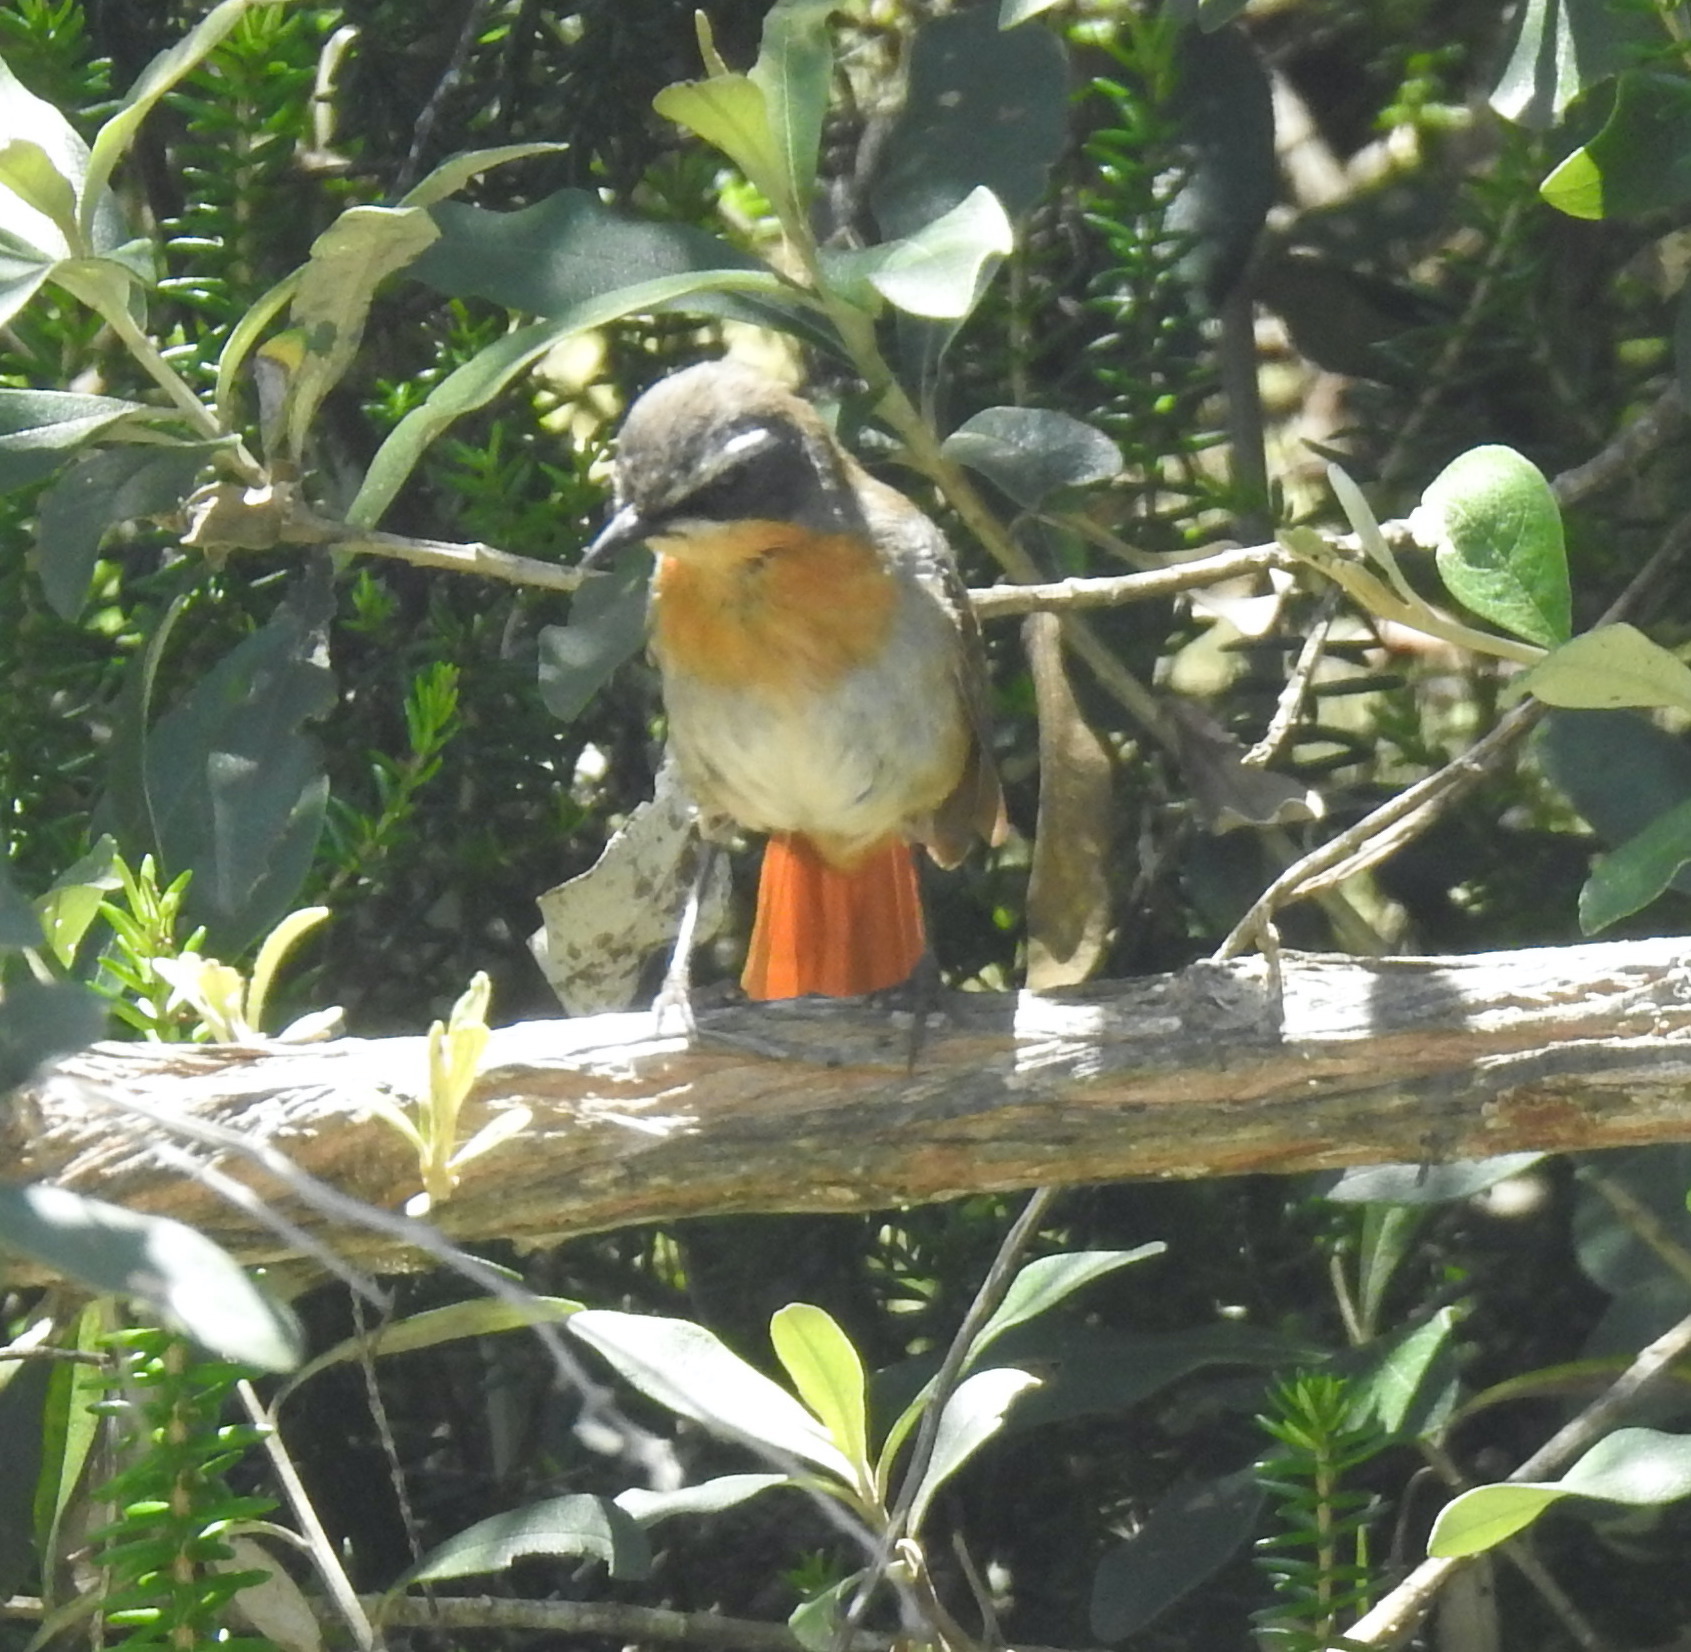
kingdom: Animalia
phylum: Chordata
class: Aves
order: Passeriformes
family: Muscicapidae
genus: Cossypha
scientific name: Cossypha caffra
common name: Cape robin-chat
